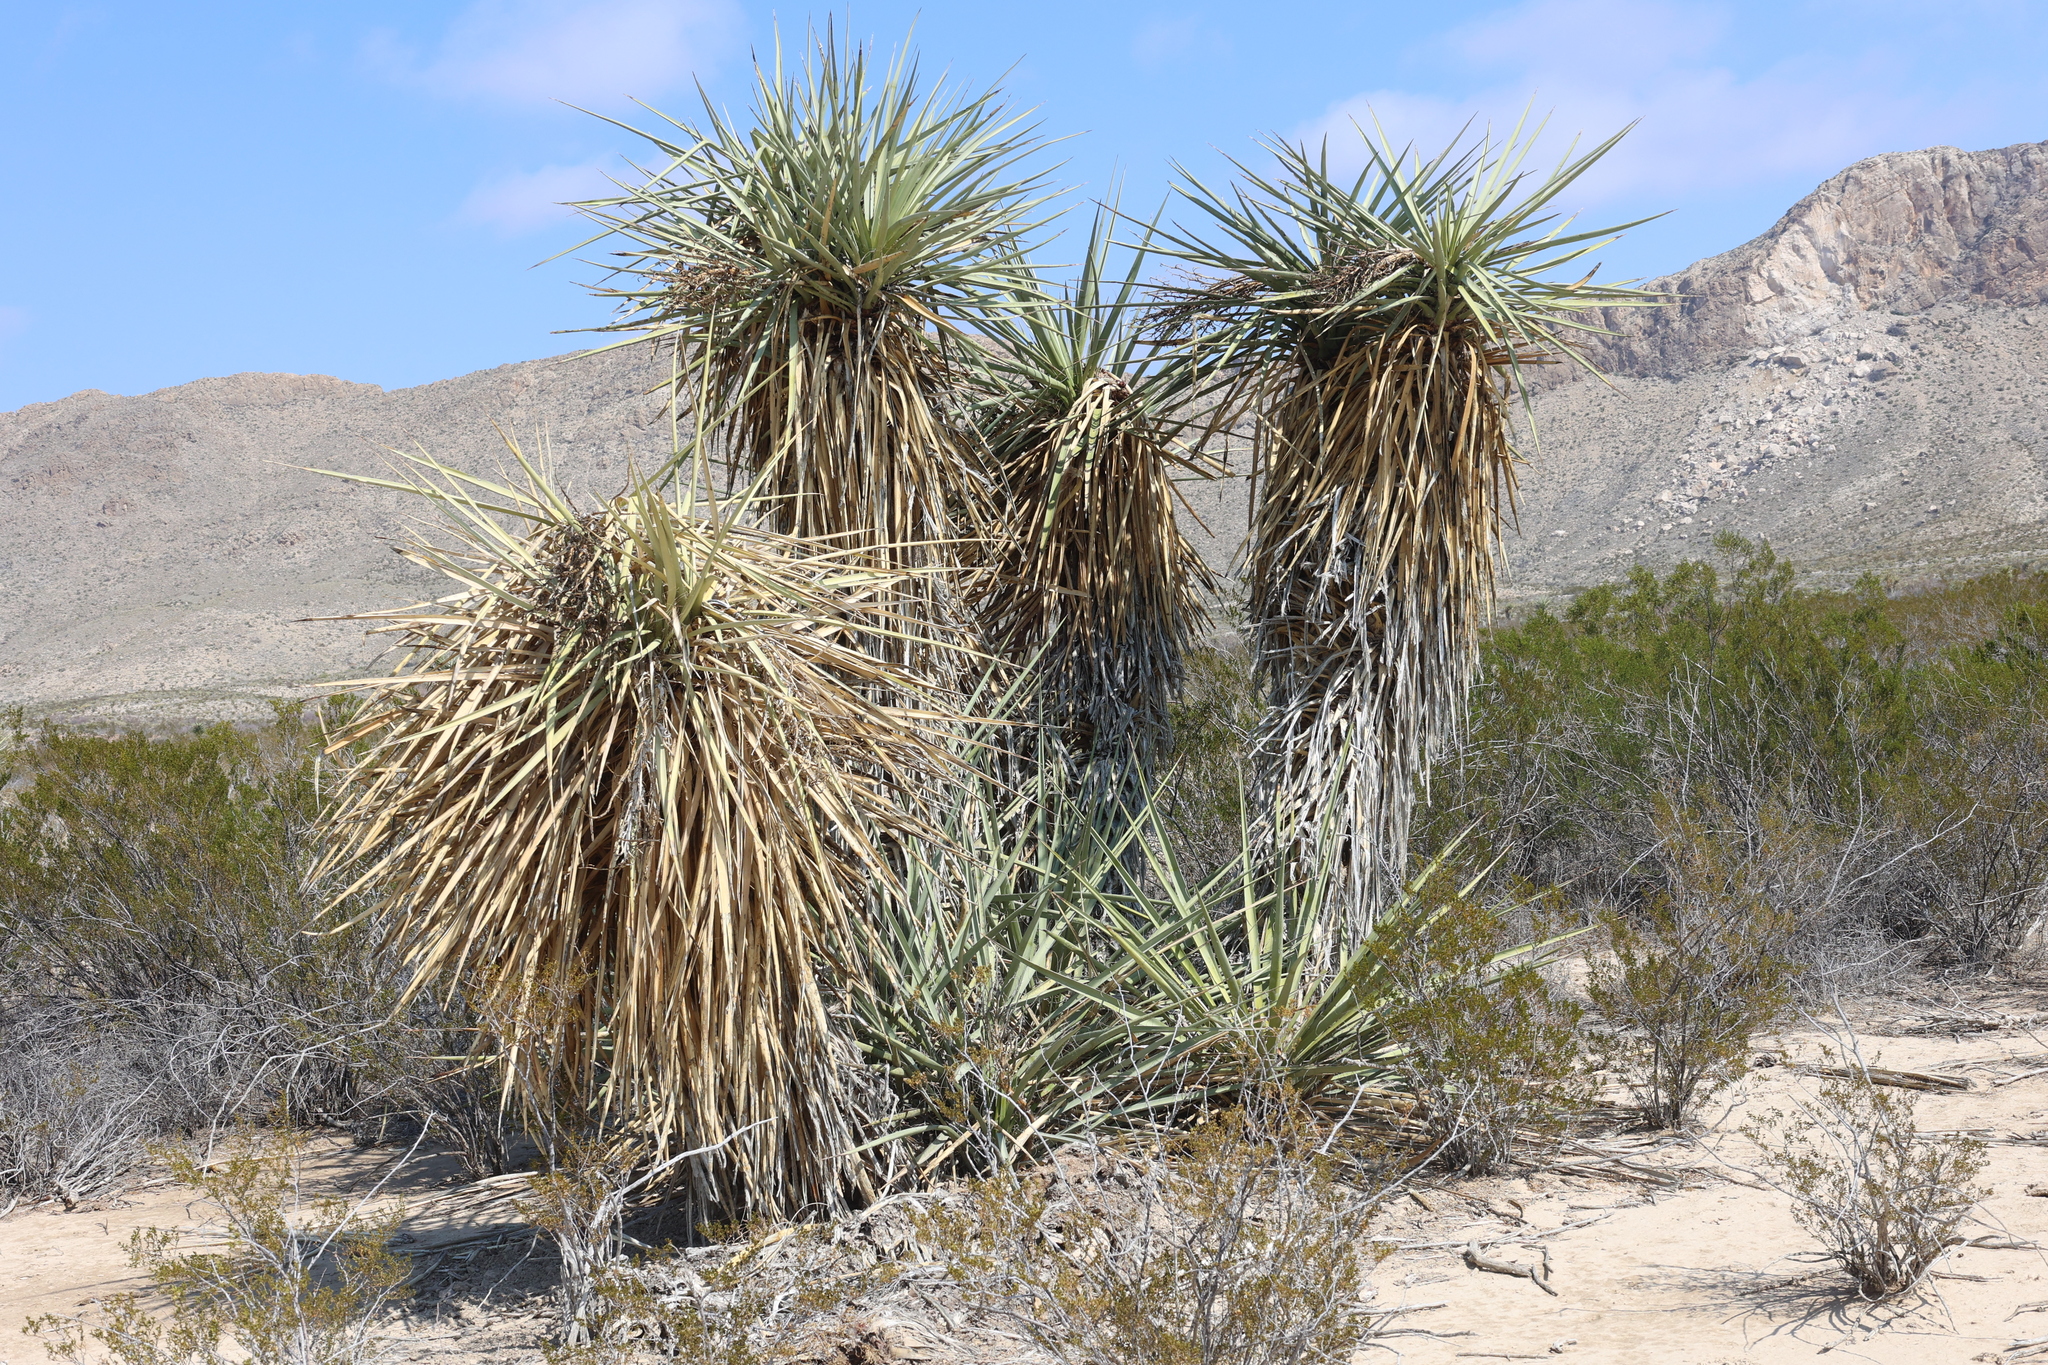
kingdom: Plantae
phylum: Tracheophyta
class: Liliopsida
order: Asparagales
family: Asparagaceae
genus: Yucca
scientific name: Yucca treculiana
